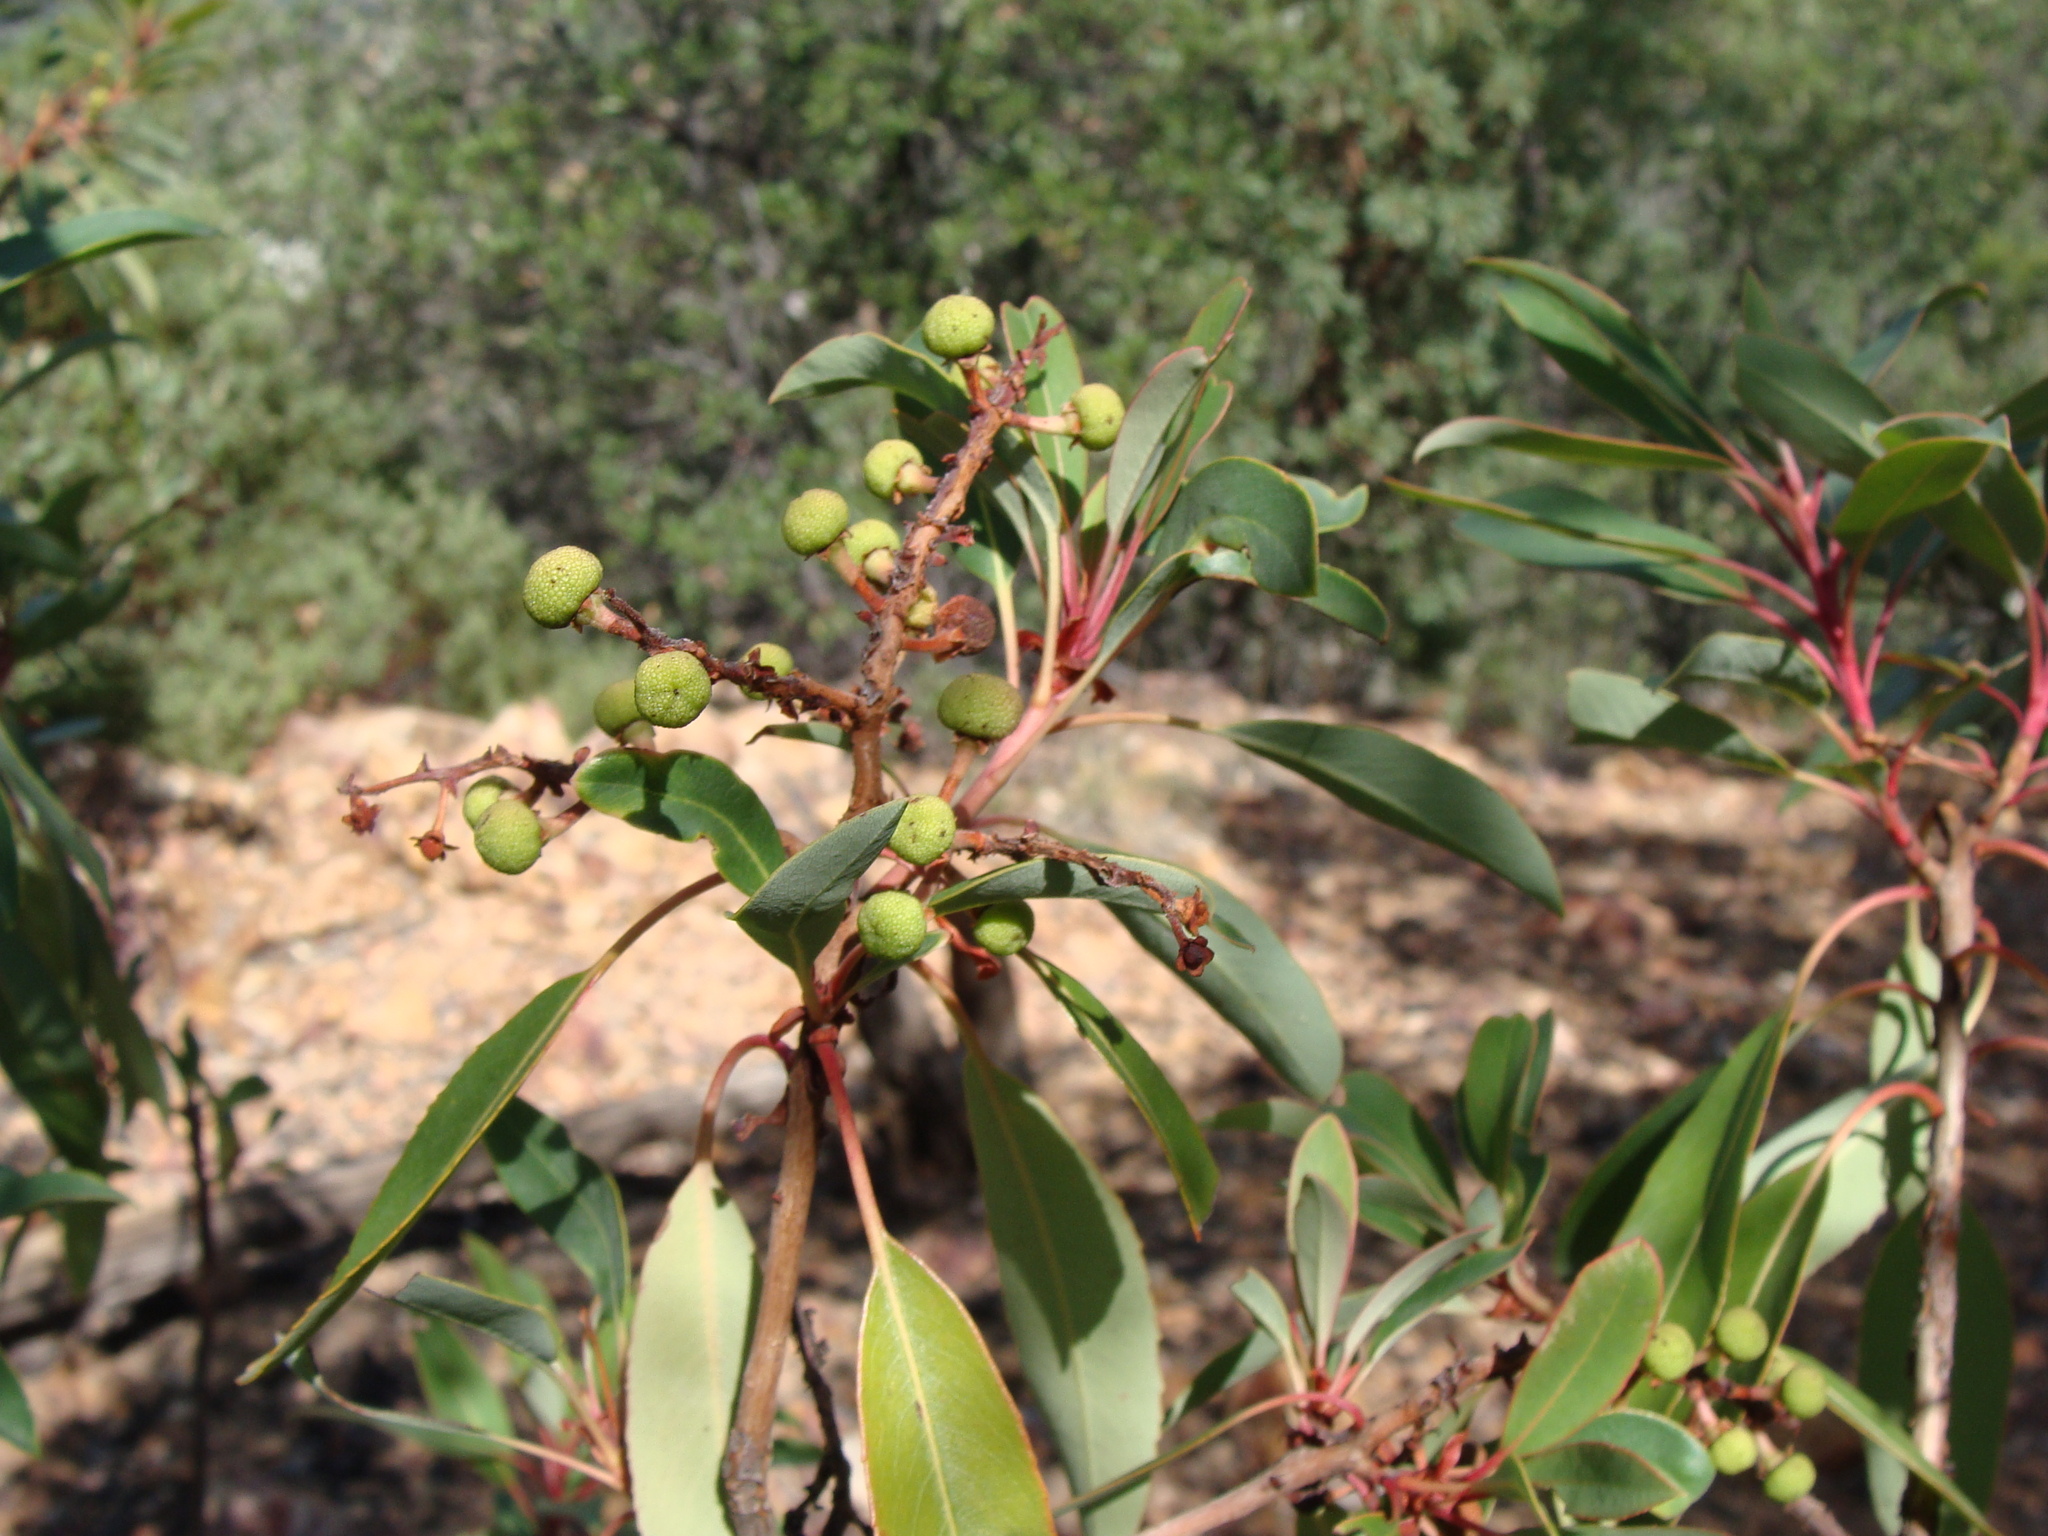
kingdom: Plantae
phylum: Tracheophyta
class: Magnoliopsida
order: Ericales
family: Ericaceae
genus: Arbutus
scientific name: Arbutus arizonica
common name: Arizona madrone
